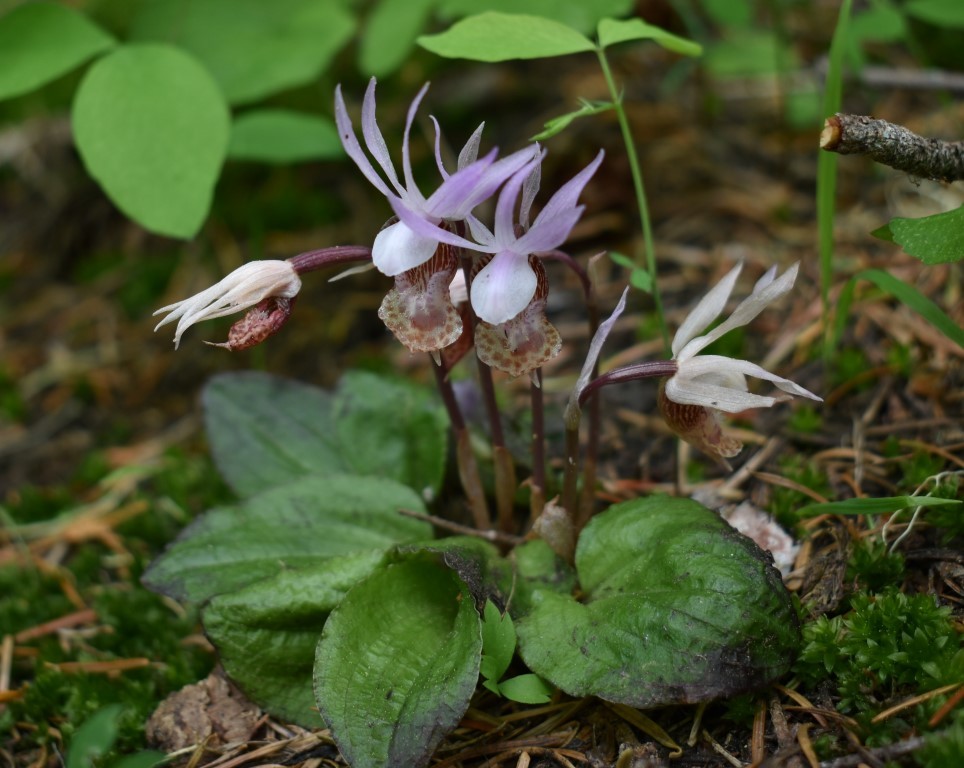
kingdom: Plantae
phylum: Tracheophyta
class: Liliopsida
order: Asparagales
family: Orchidaceae
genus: Calypso
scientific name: Calypso bulbosa
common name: Calypso
